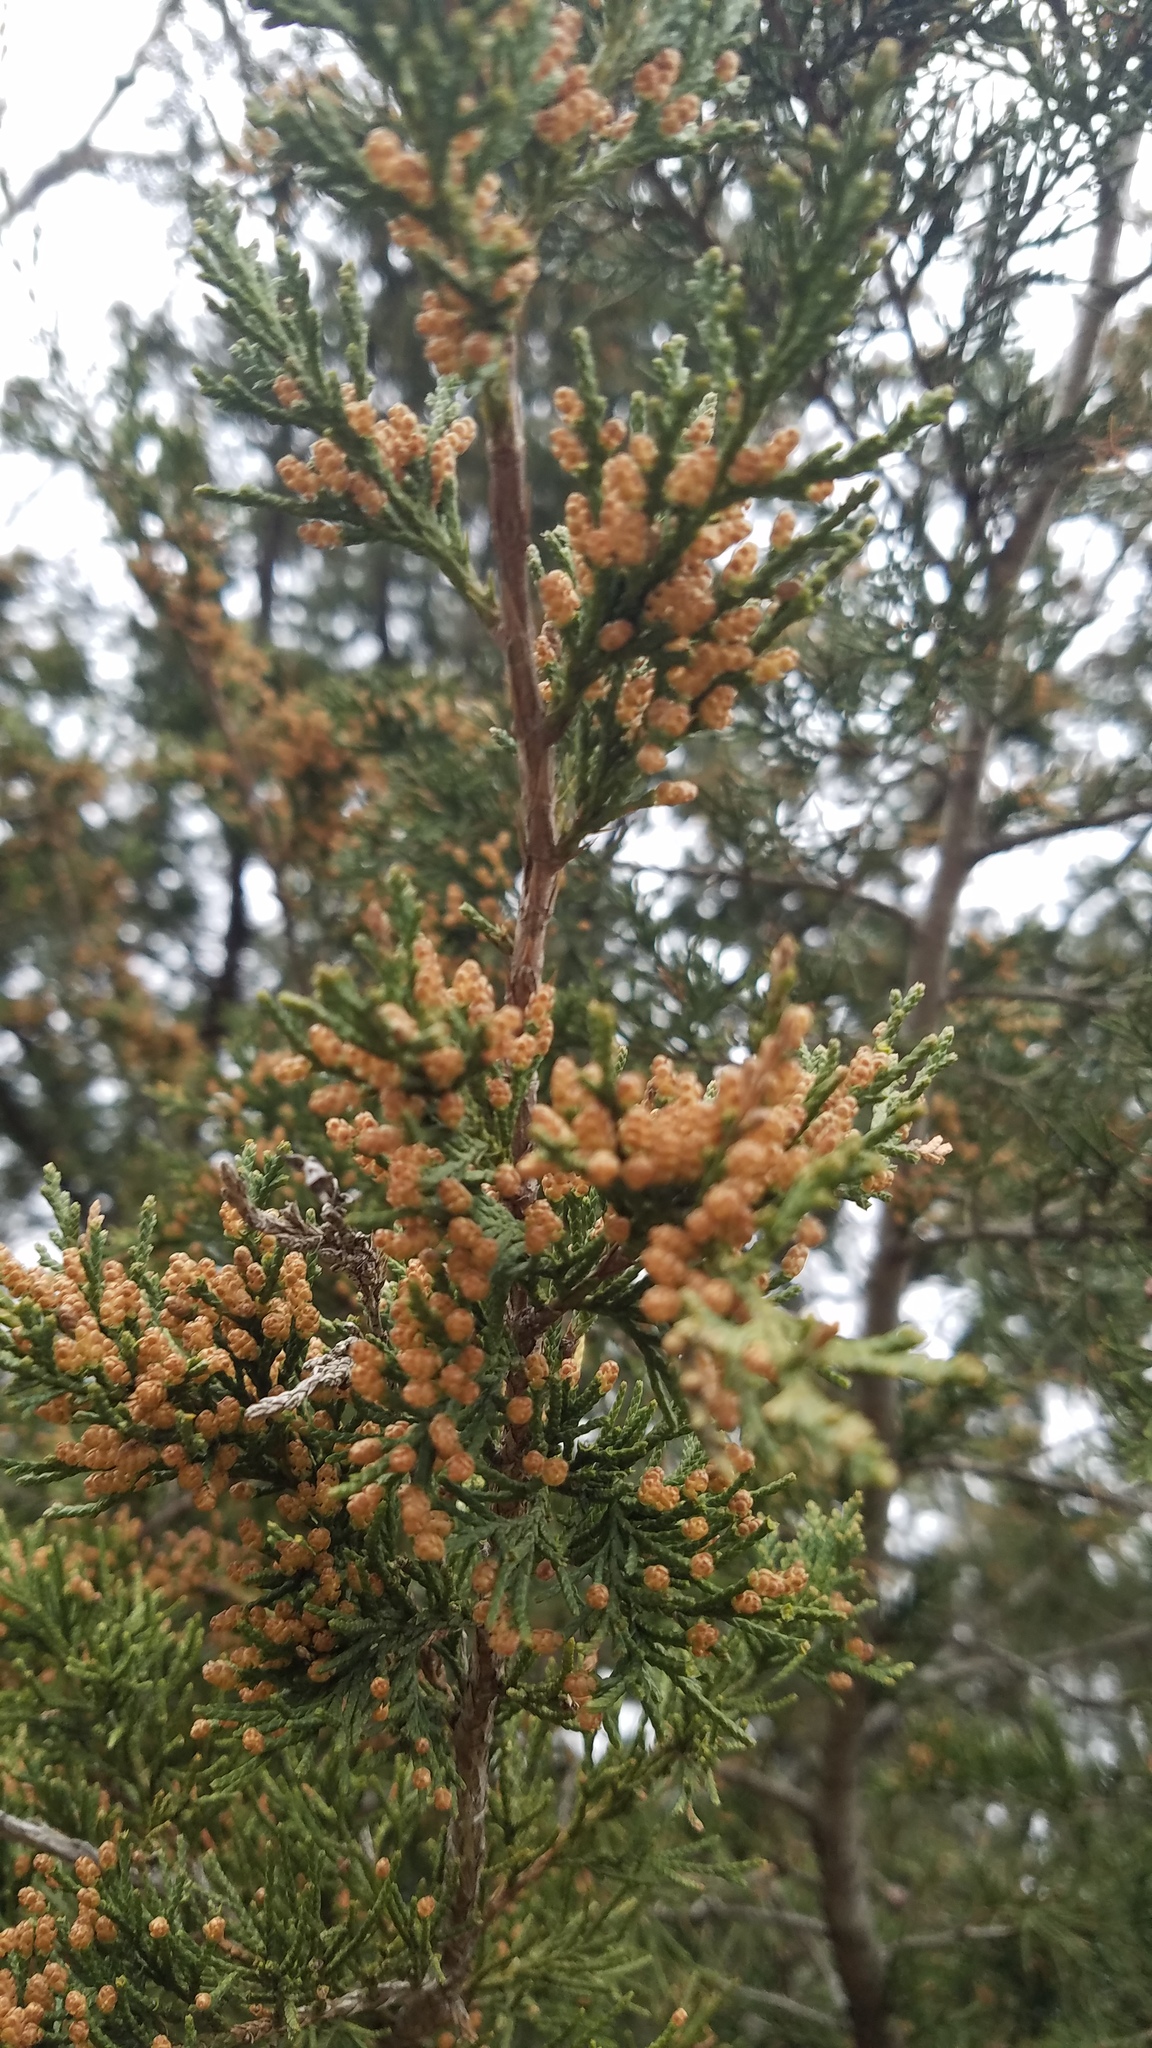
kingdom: Plantae
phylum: Tracheophyta
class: Pinopsida
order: Pinales
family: Cupressaceae
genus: Juniperus
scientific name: Juniperus virginiana
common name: Red juniper
